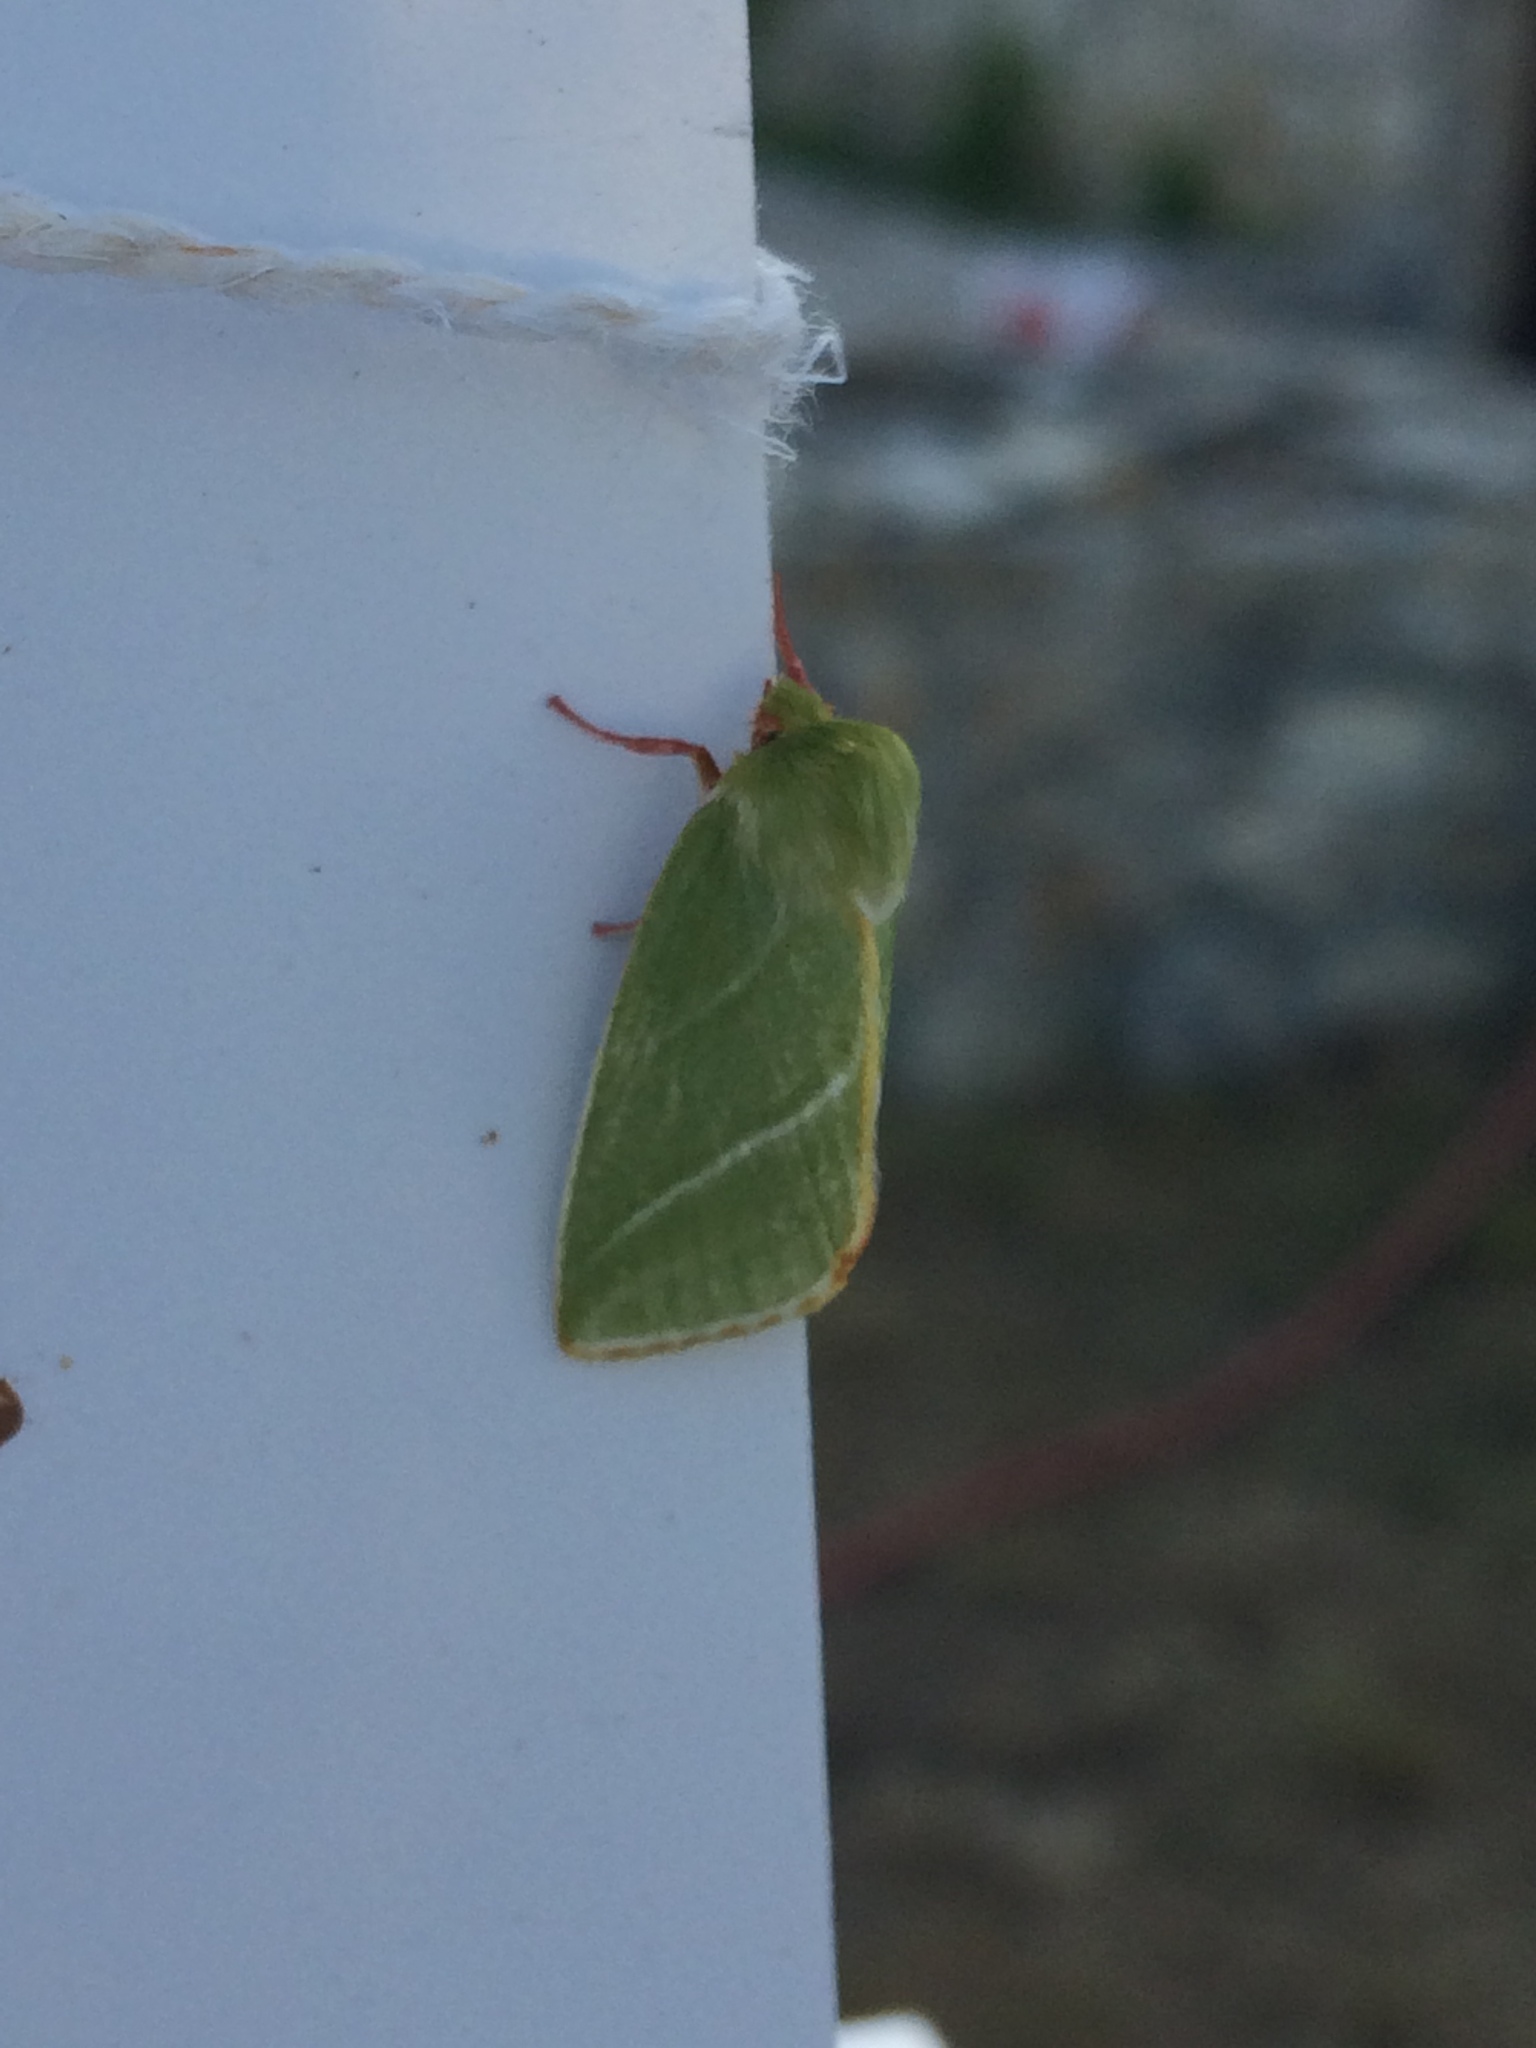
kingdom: Animalia
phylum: Arthropoda
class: Insecta
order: Lepidoptera
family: Nolidae
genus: Pseudoips
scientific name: Pseudoips prasinana
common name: Green silver-lines
